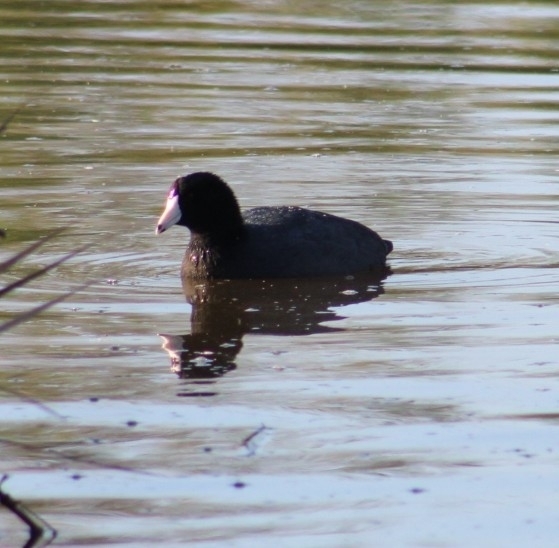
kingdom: Animalia
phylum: Chordata
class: Aves
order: Gruiformes
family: Rallidae
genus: Fulica
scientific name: Fulica americana
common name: American coot
